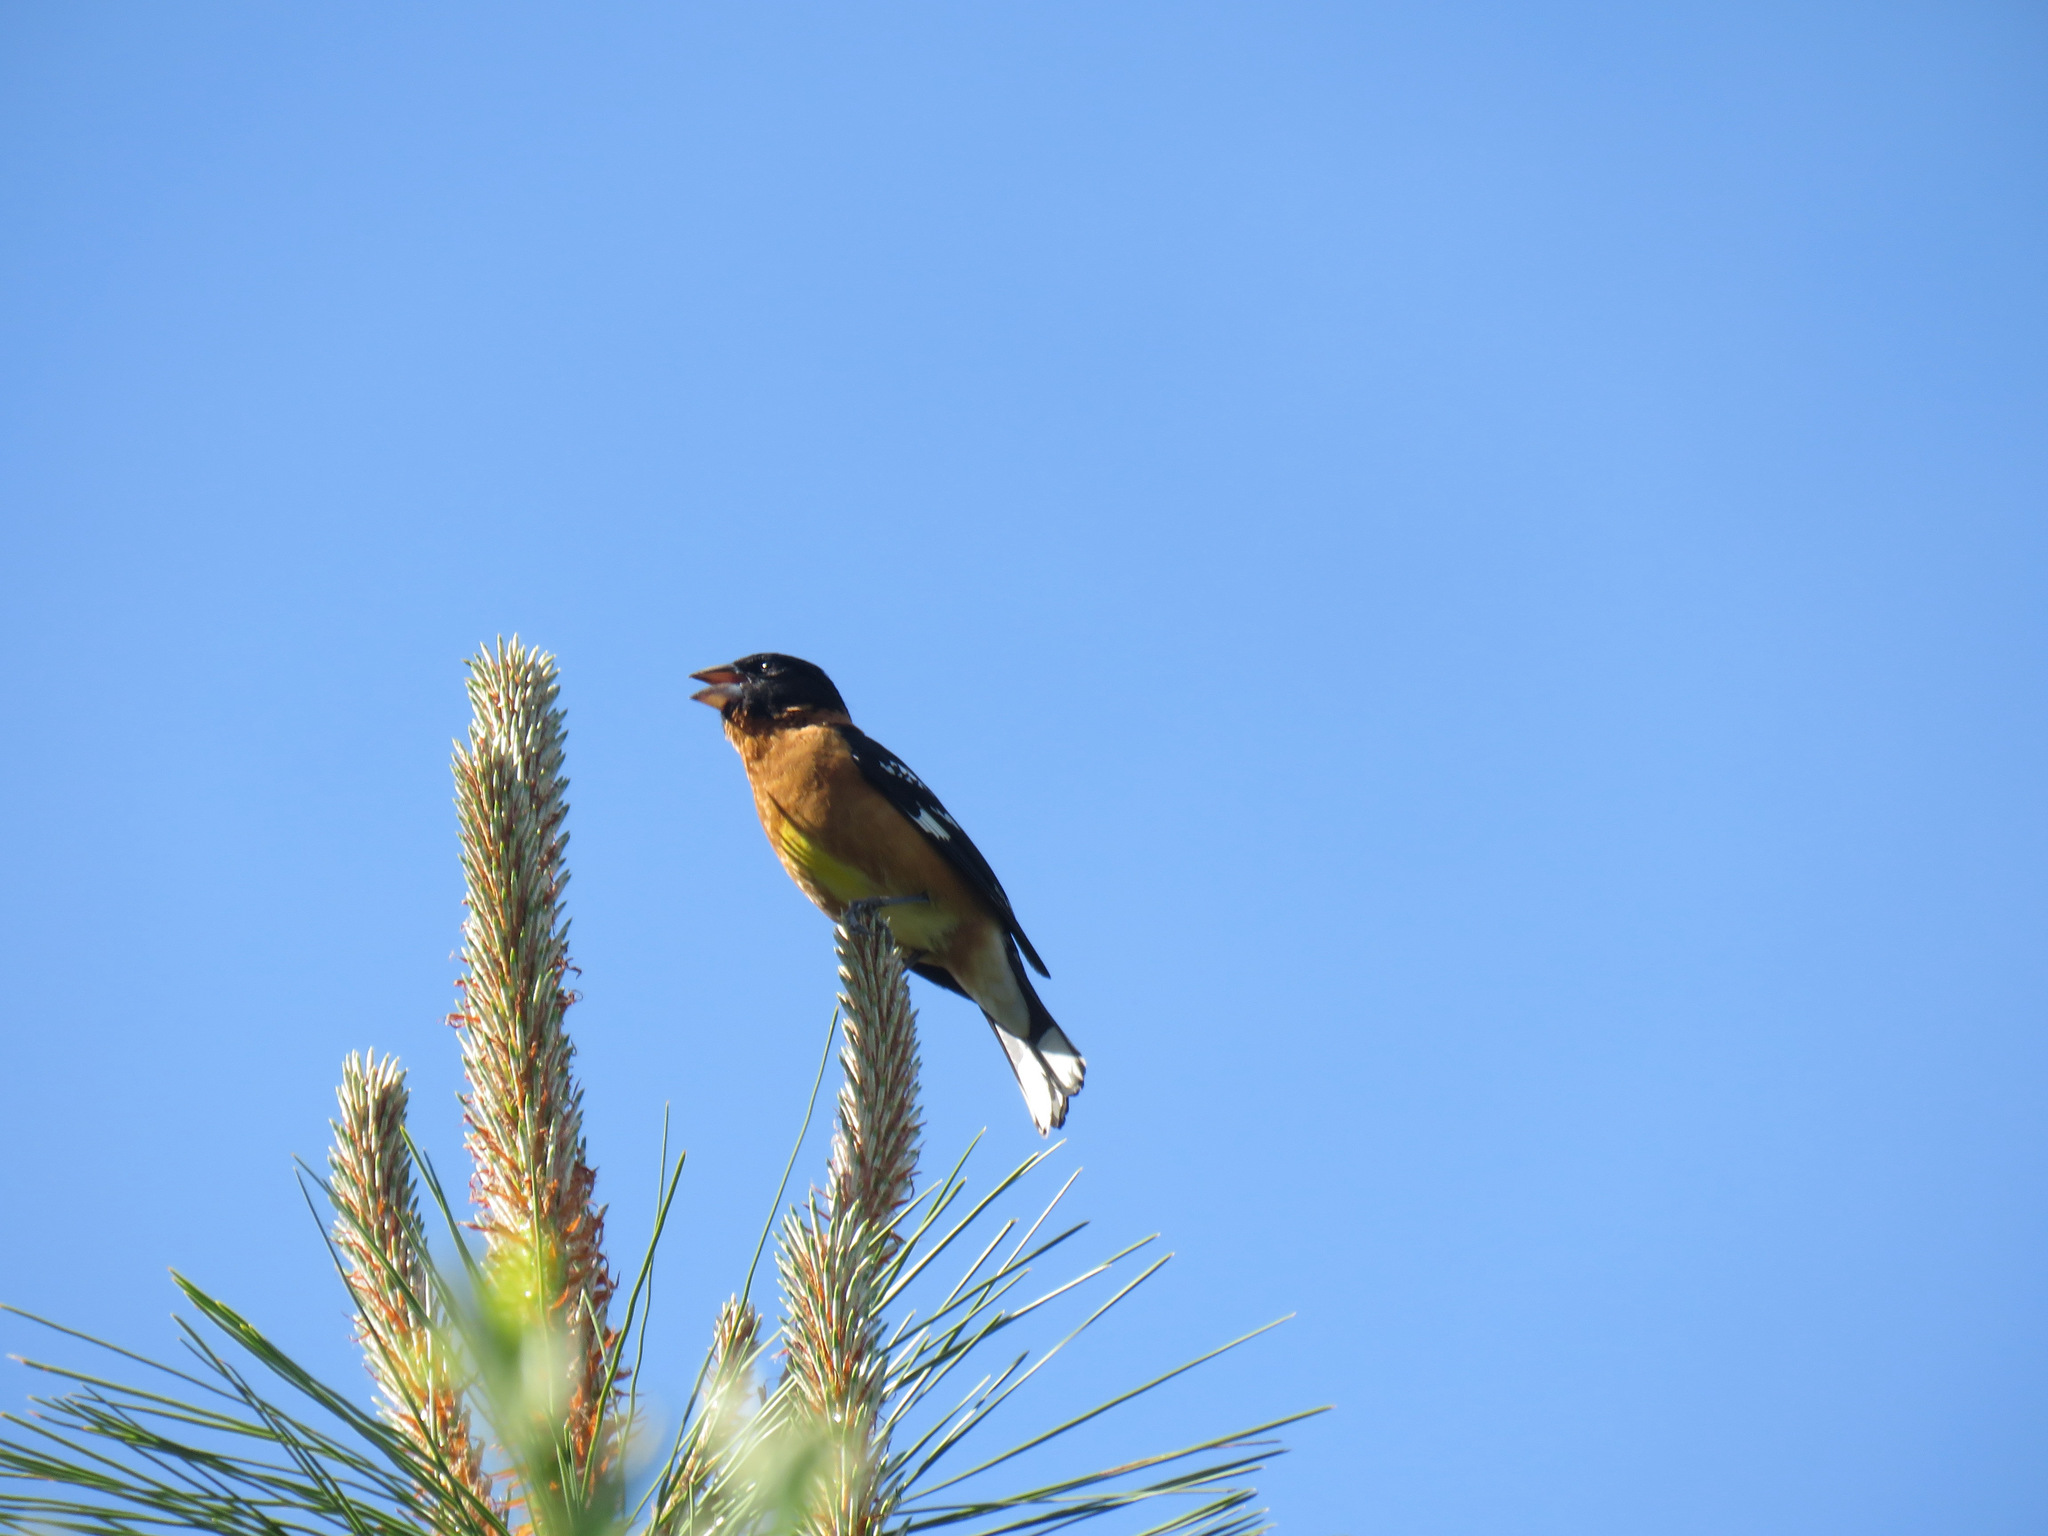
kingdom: Animalia
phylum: Chordata
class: Aves
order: Passeriformes
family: Cardinalidae
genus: Pheucticus
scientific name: Pheucticus melanocephalus
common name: Black-headed grosbeak
